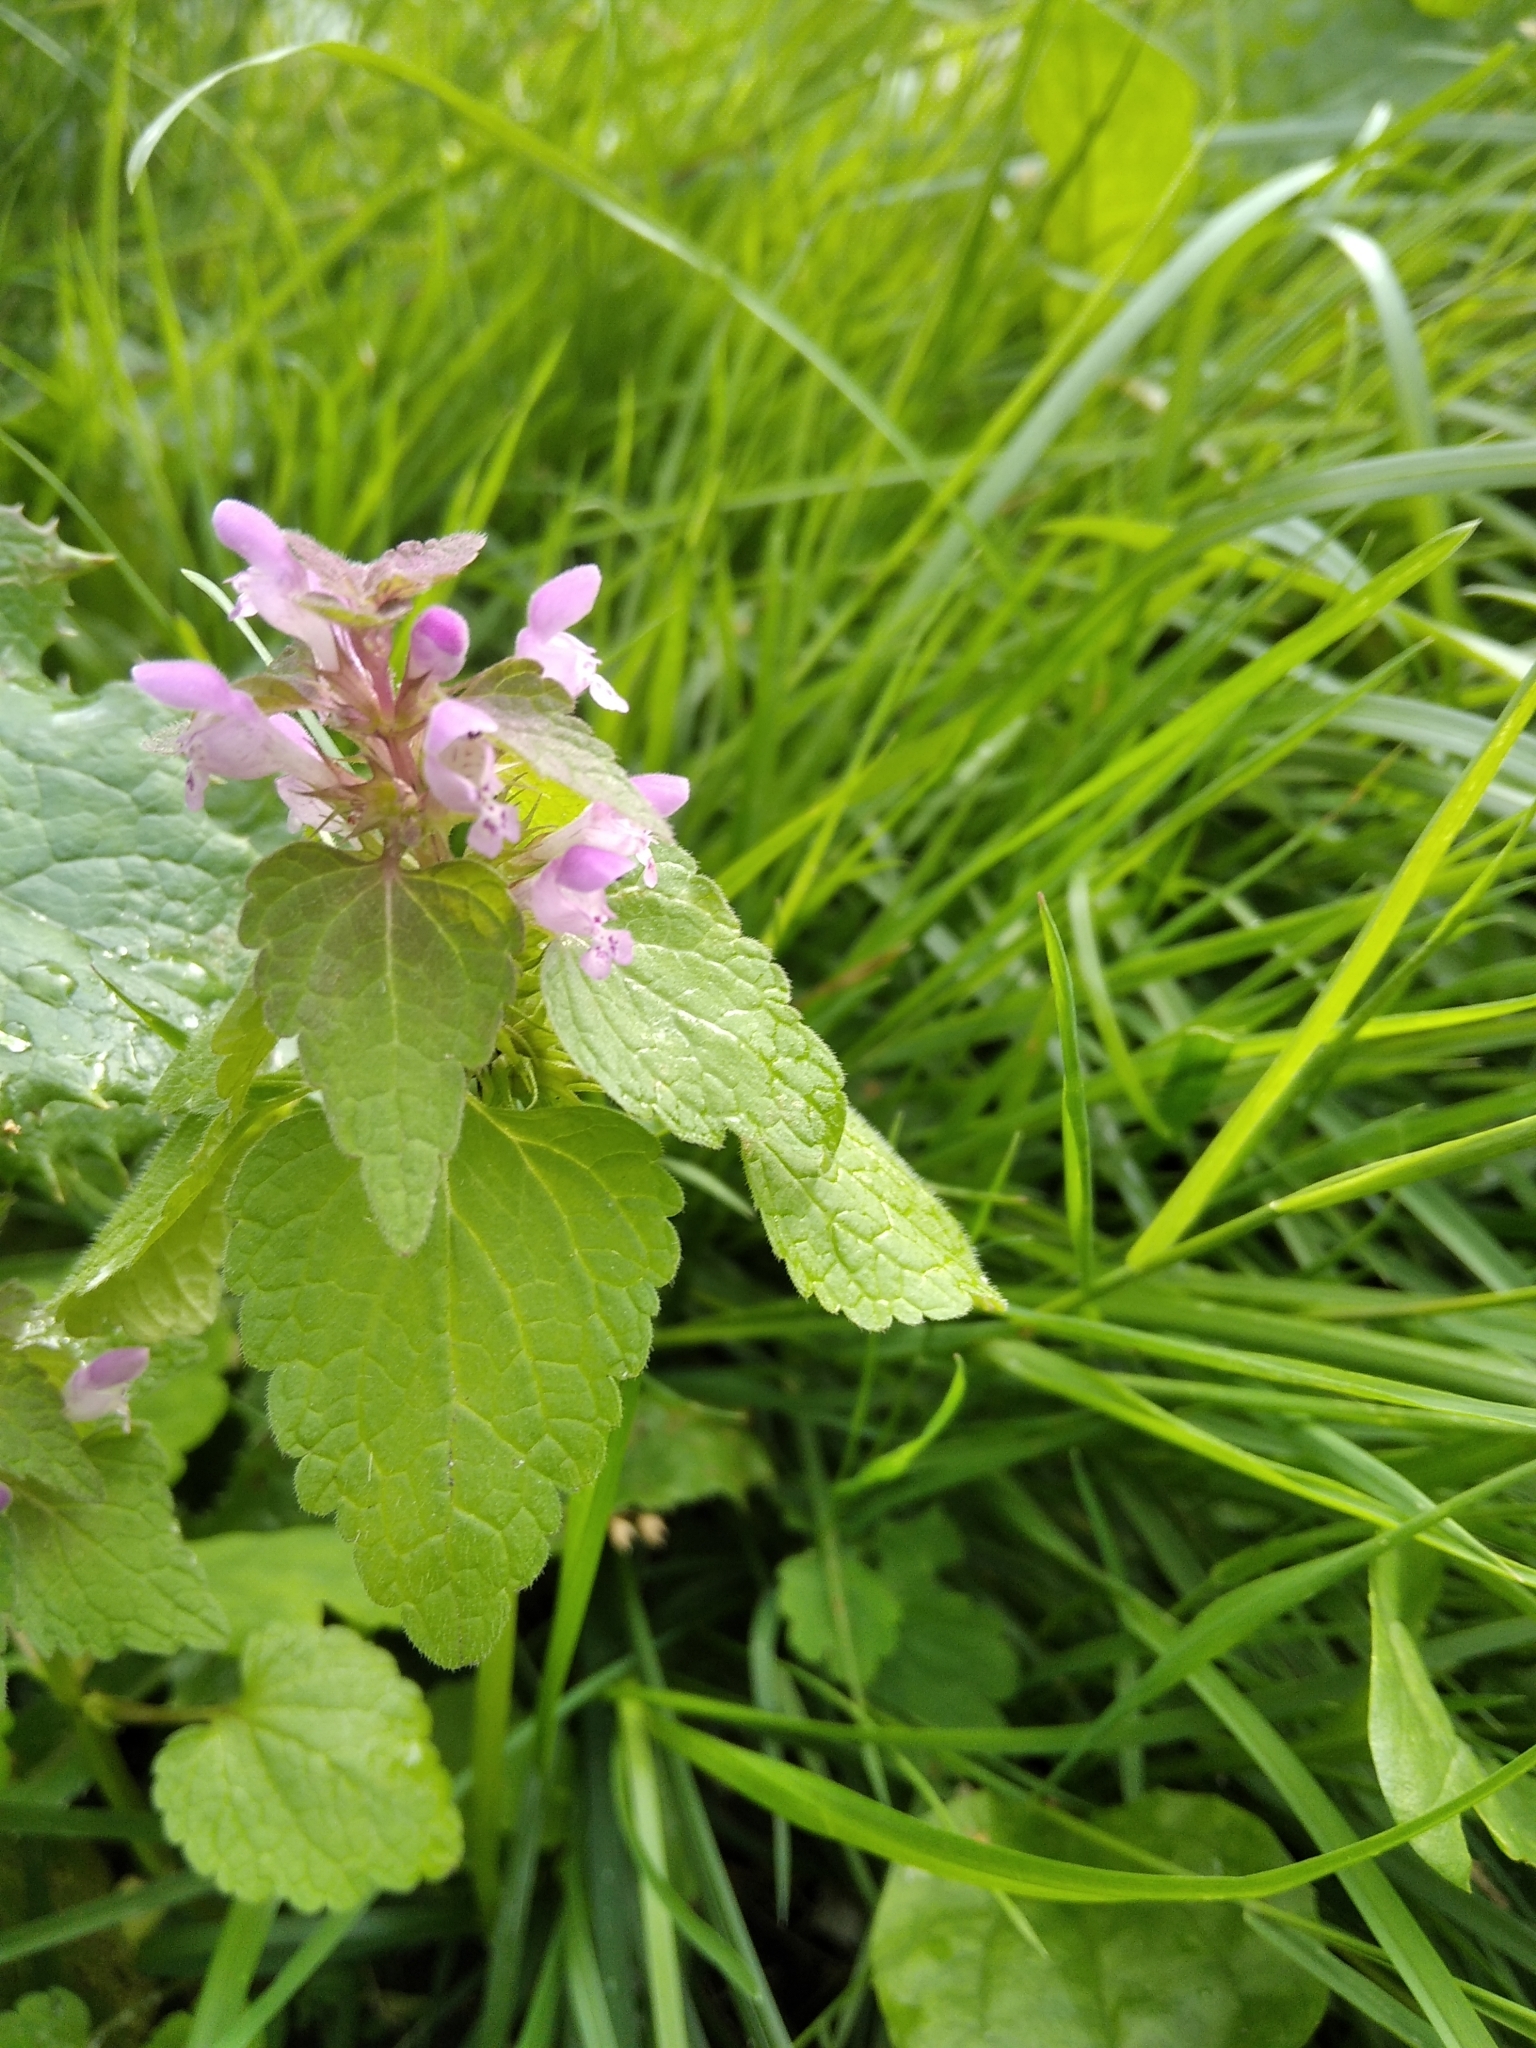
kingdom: Plantae
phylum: Tracheophyta
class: Magnoliopsida
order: Lamiales
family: Lamiaceae
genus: Lamium
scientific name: Lamium purpureum
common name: Red dead-nettle
